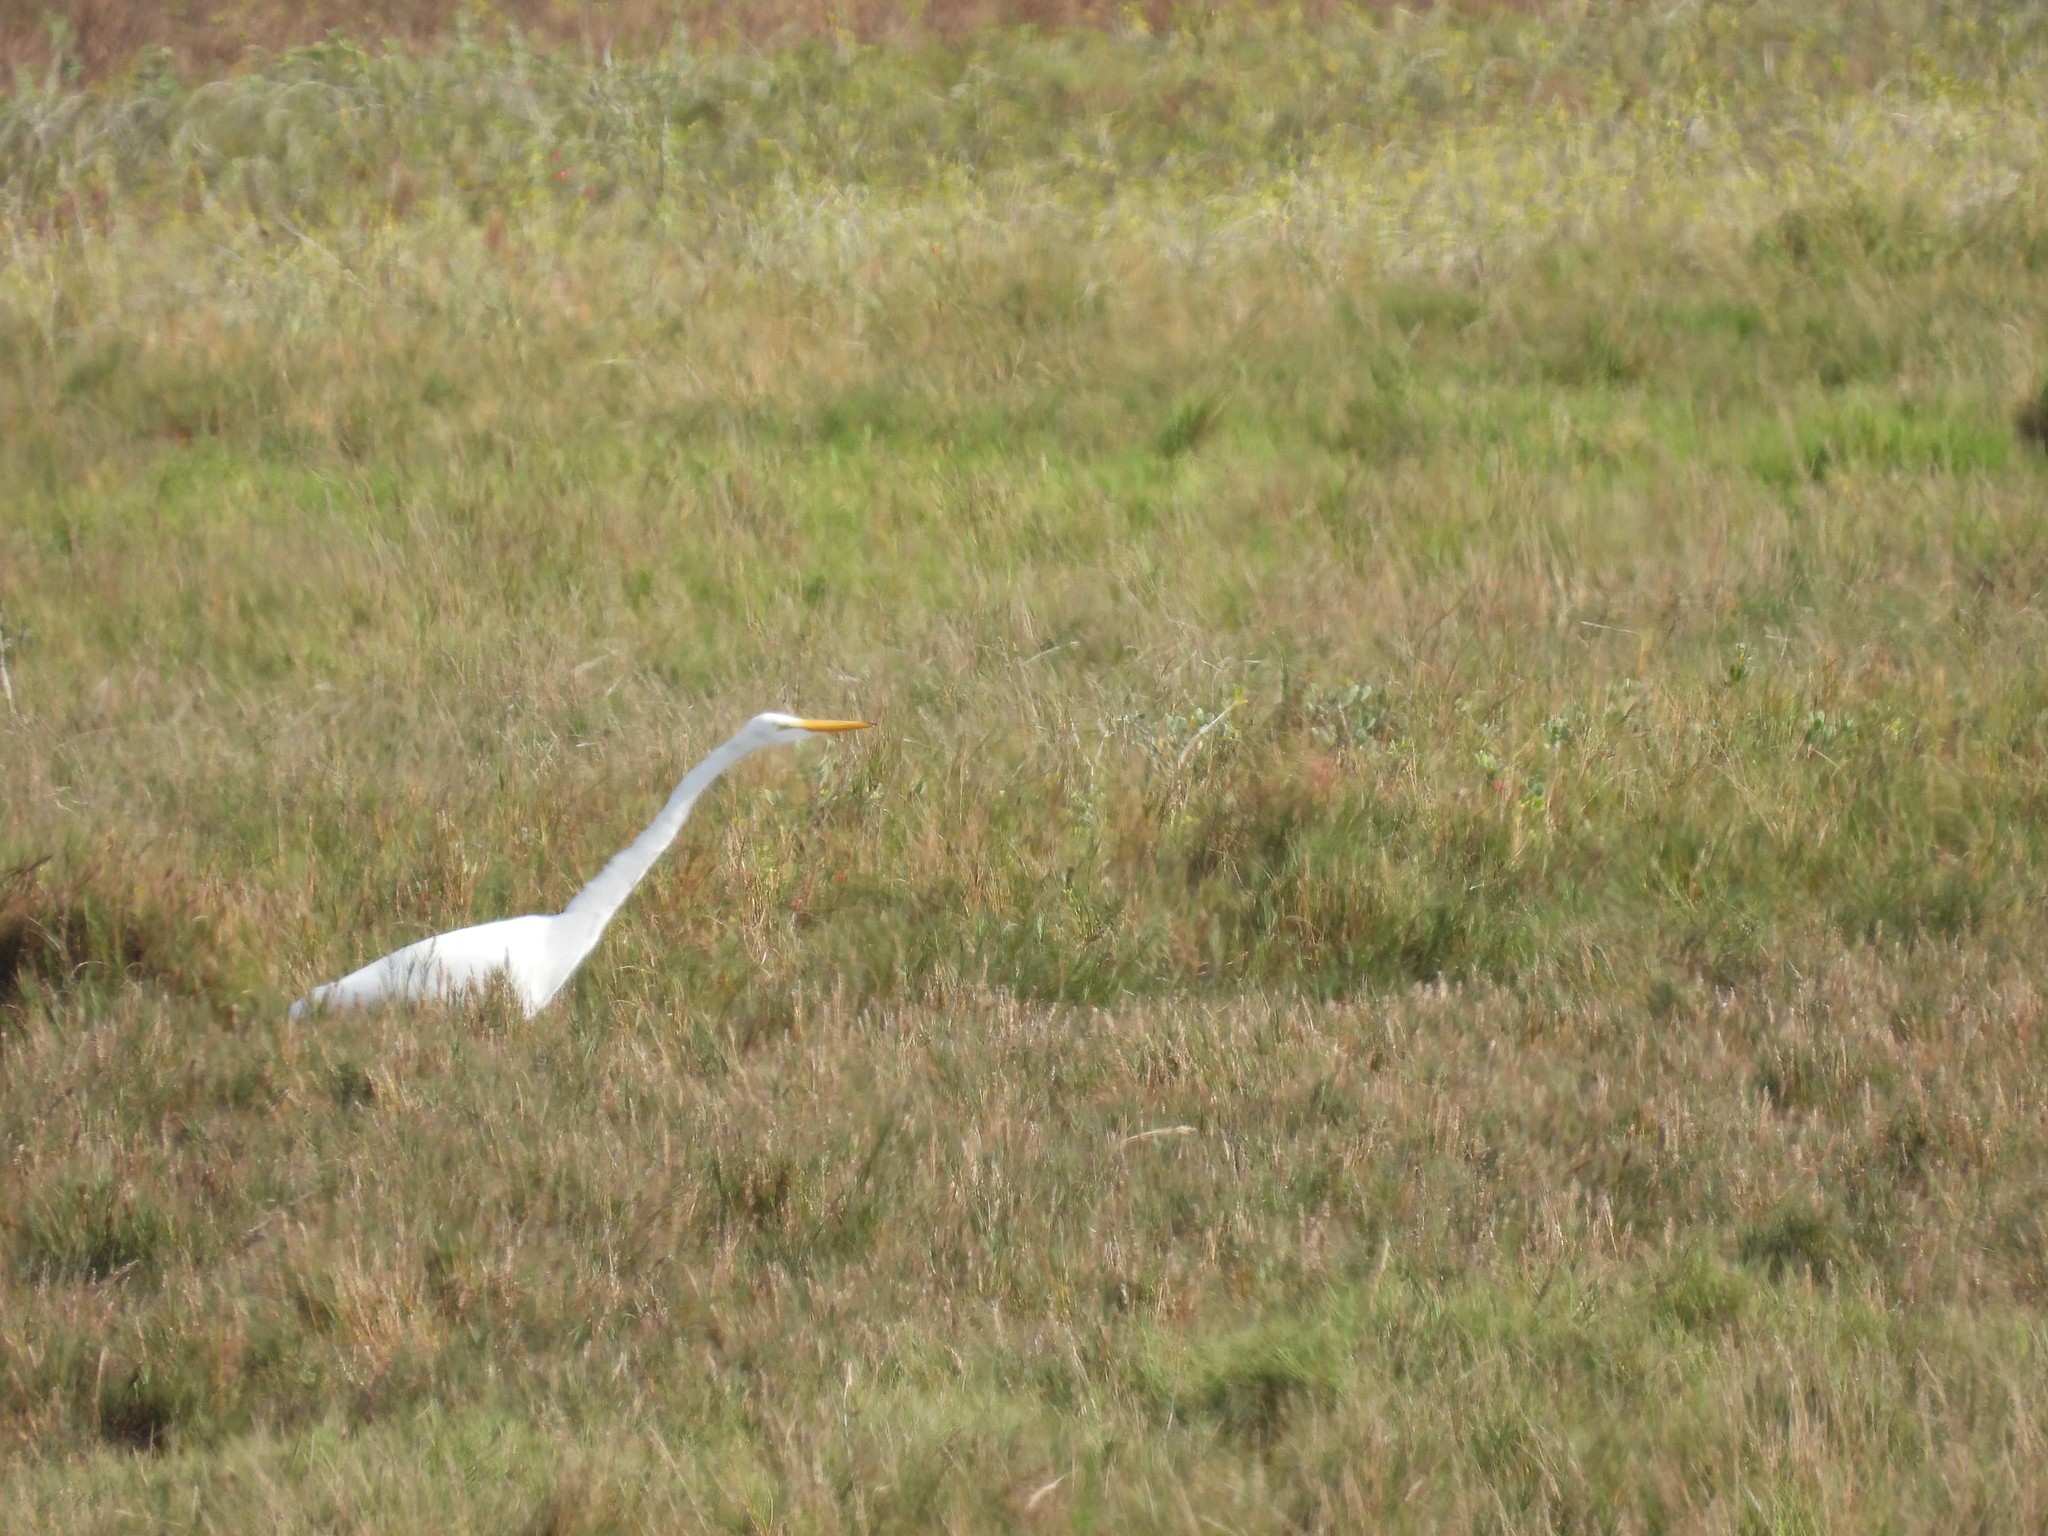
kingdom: Animalia
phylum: Chordata
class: Aves
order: Pelecaniformes
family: Ardeidae
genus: Ardea
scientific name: Ardea alba
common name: Great egret
